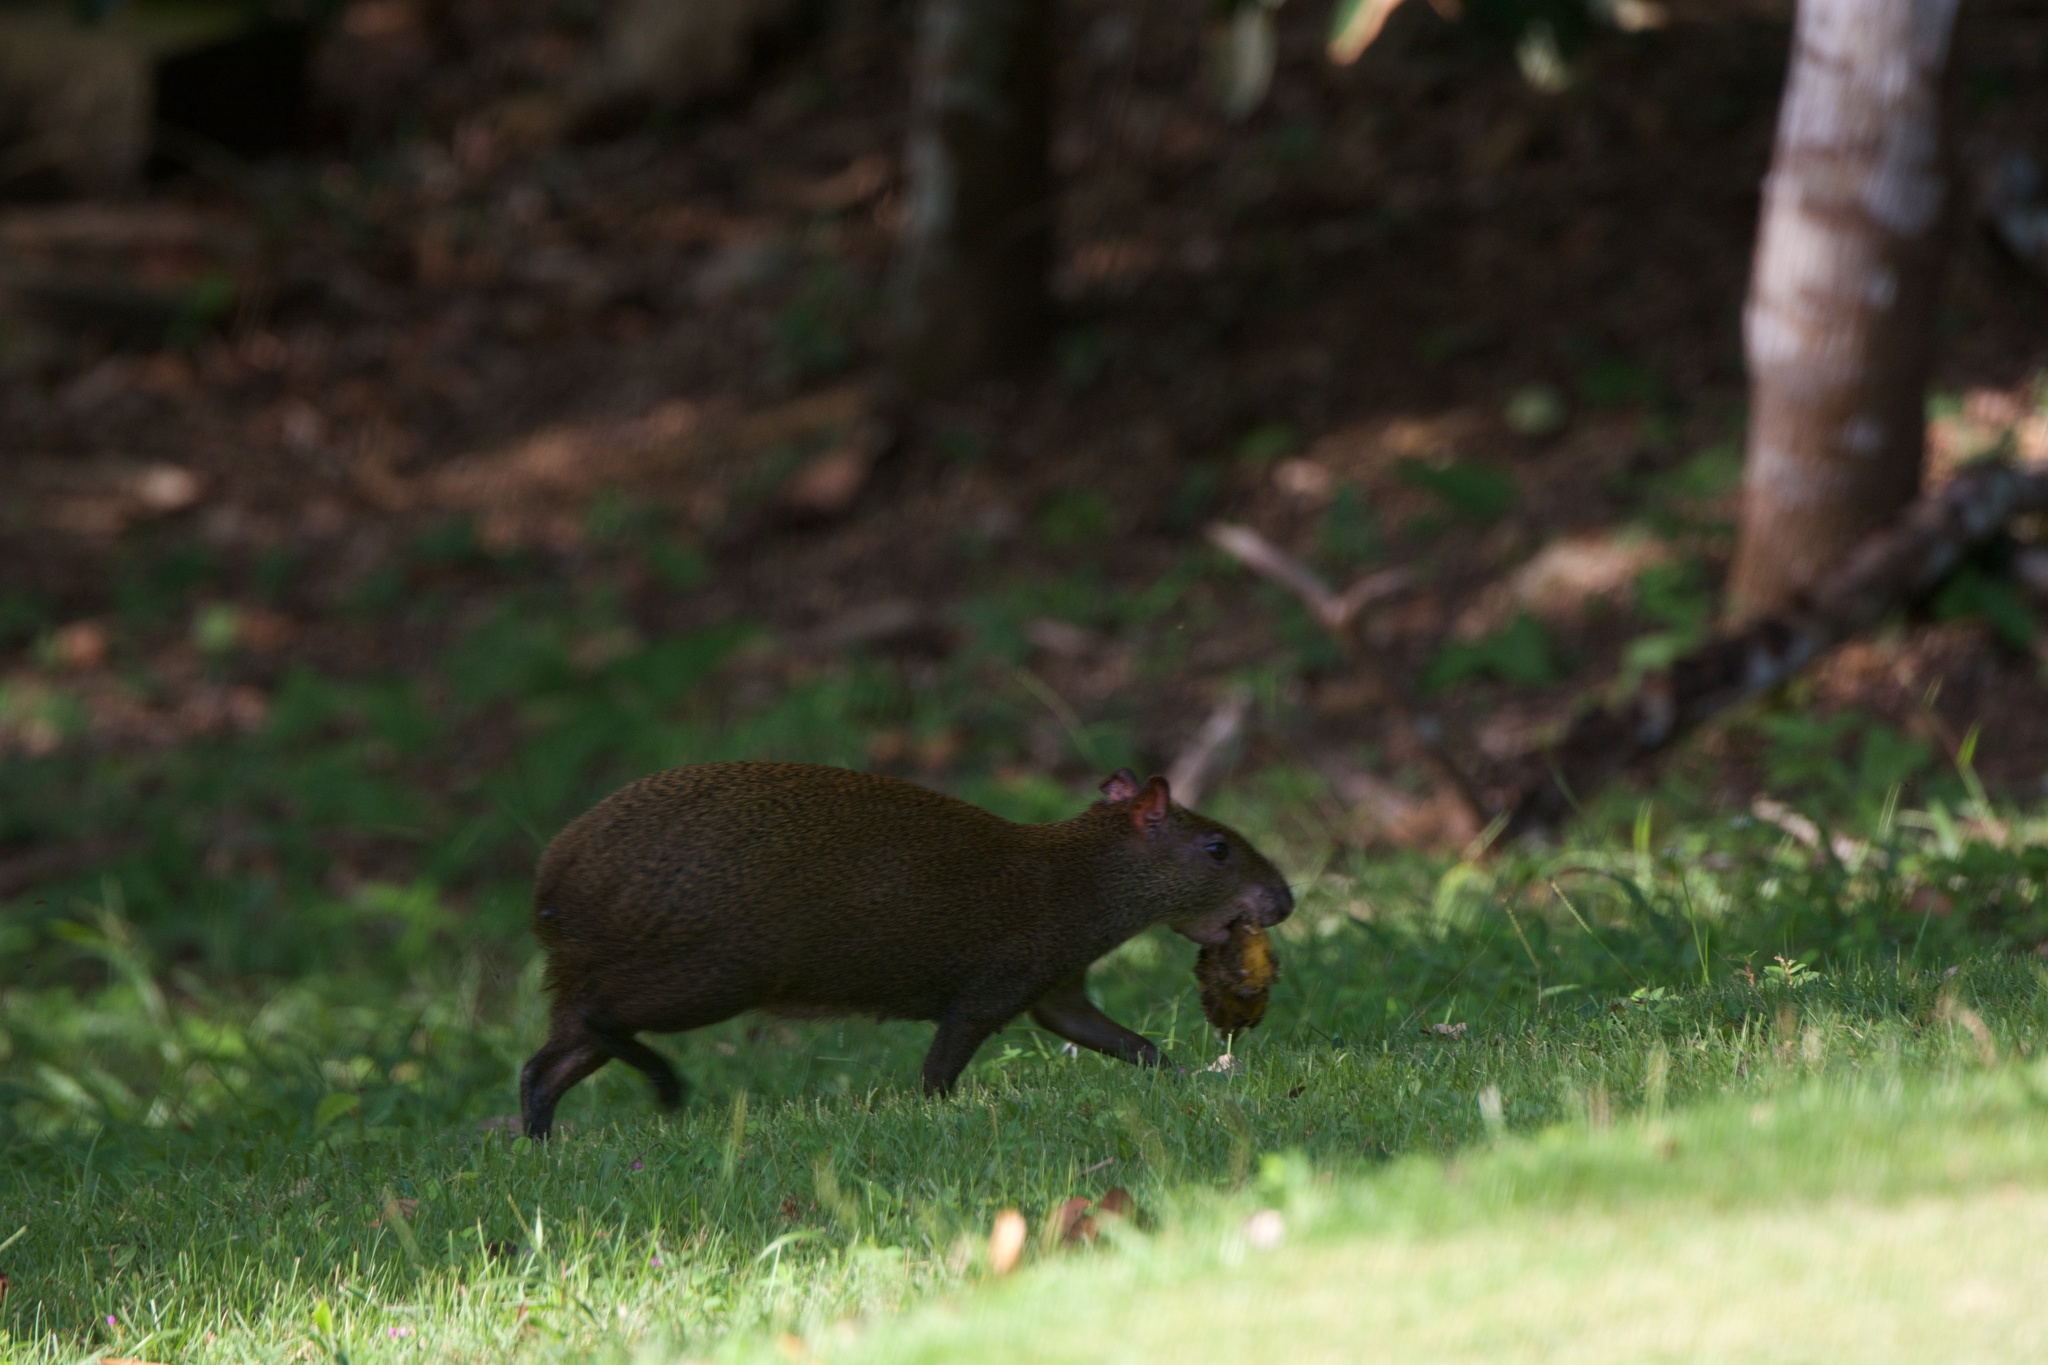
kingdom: Animalia
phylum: Chordata
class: Mammalia
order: Rodentia
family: Dasyproctidae
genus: Dasyprocta
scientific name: Dasyprocta punctata
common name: Central american agouti
